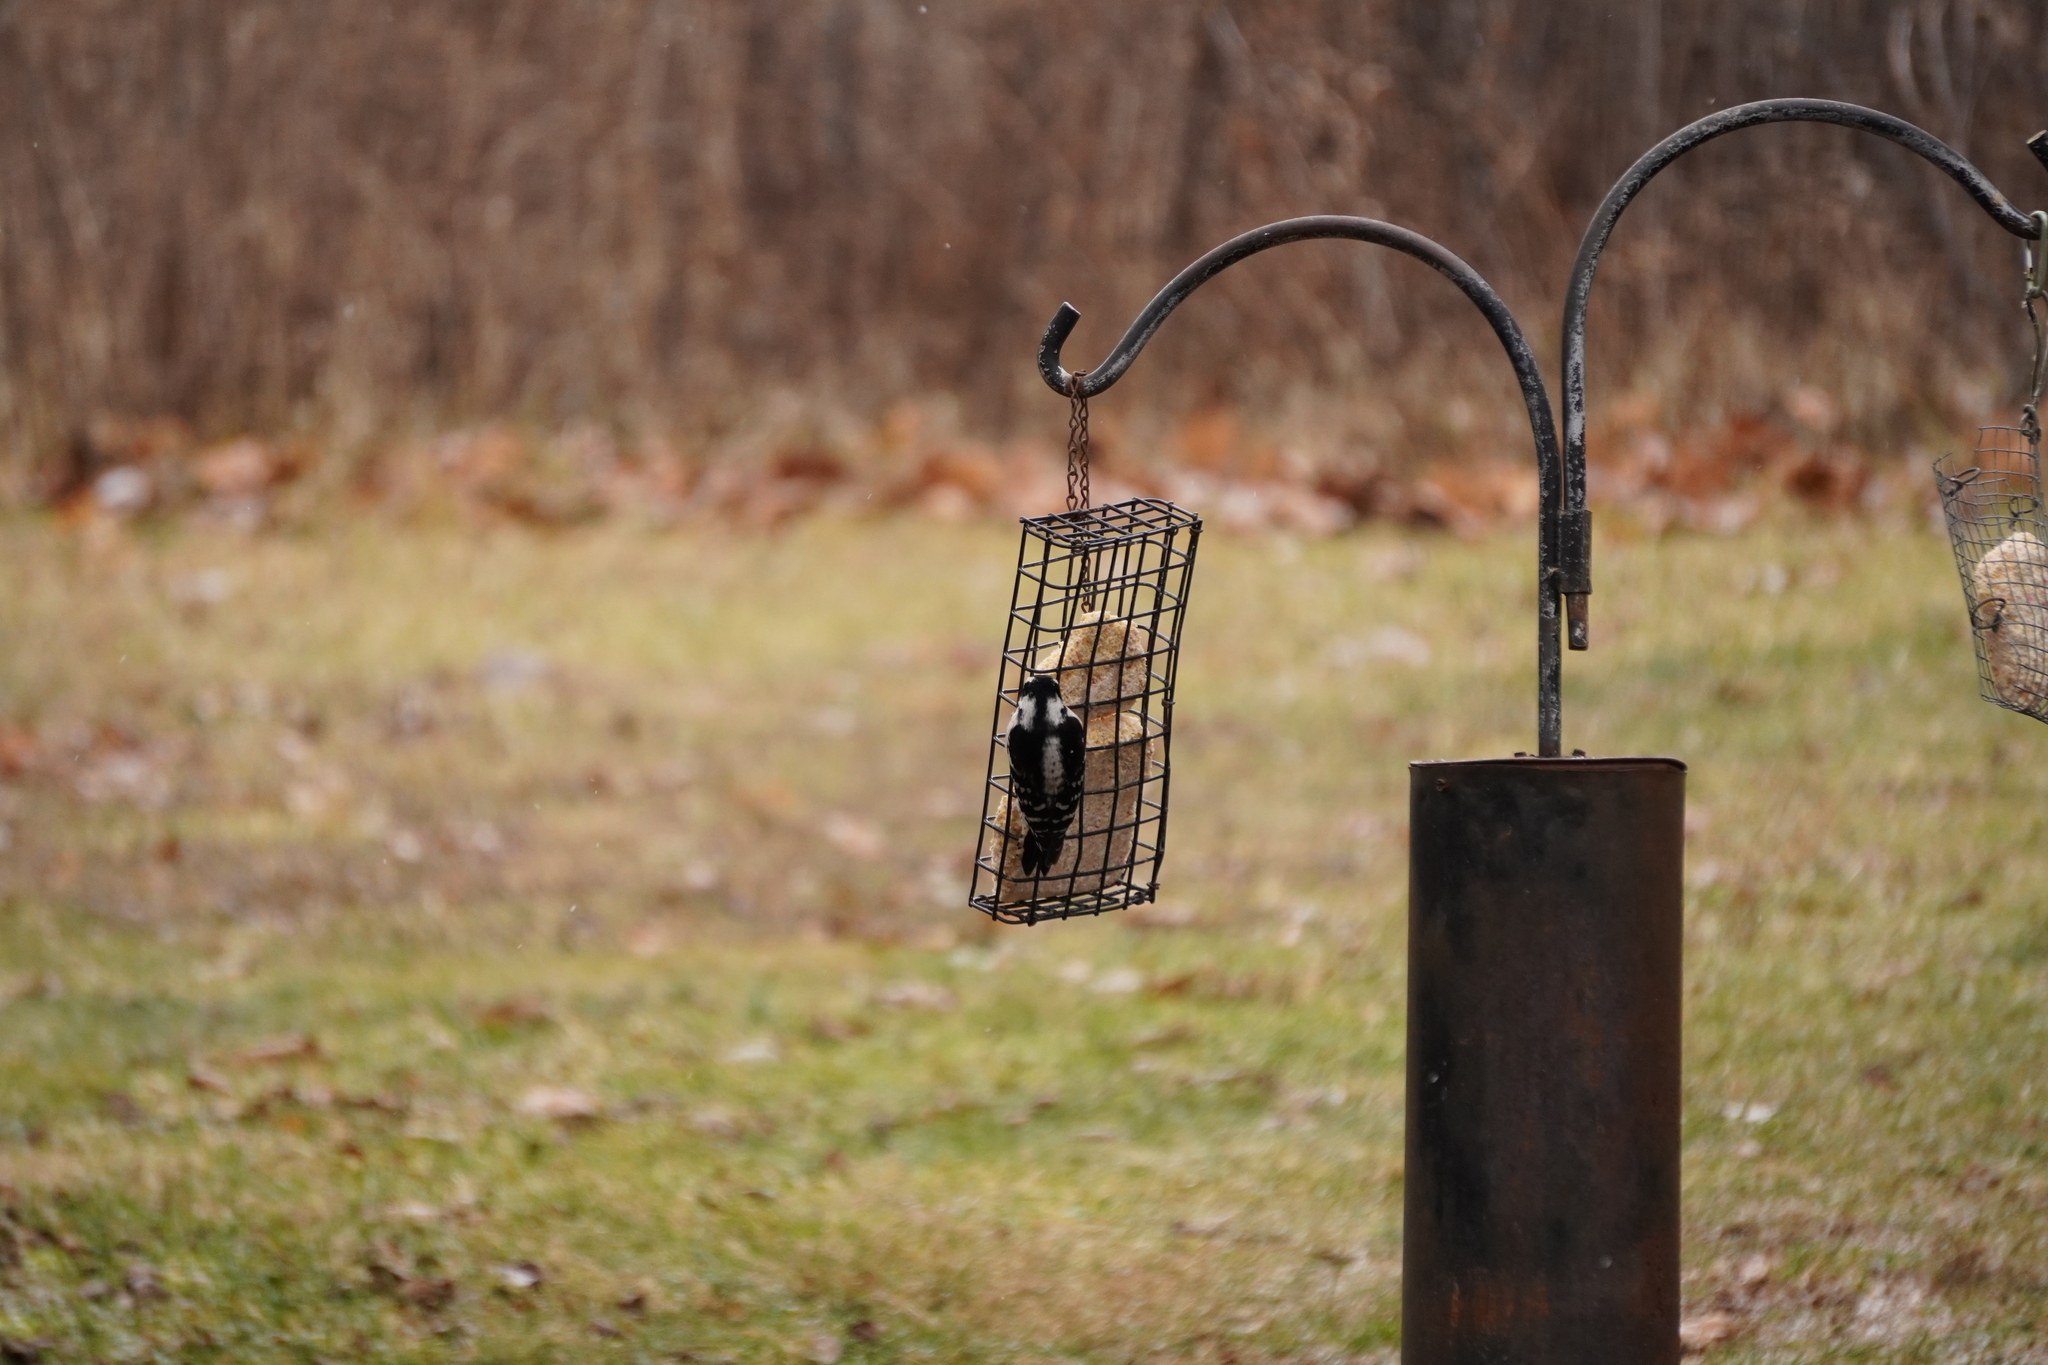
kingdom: Animalia
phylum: Chordata
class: Aves
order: Piciformes
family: Picidae
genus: Dryobates
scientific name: Dryobates pubescens
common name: Downy woodpecker
